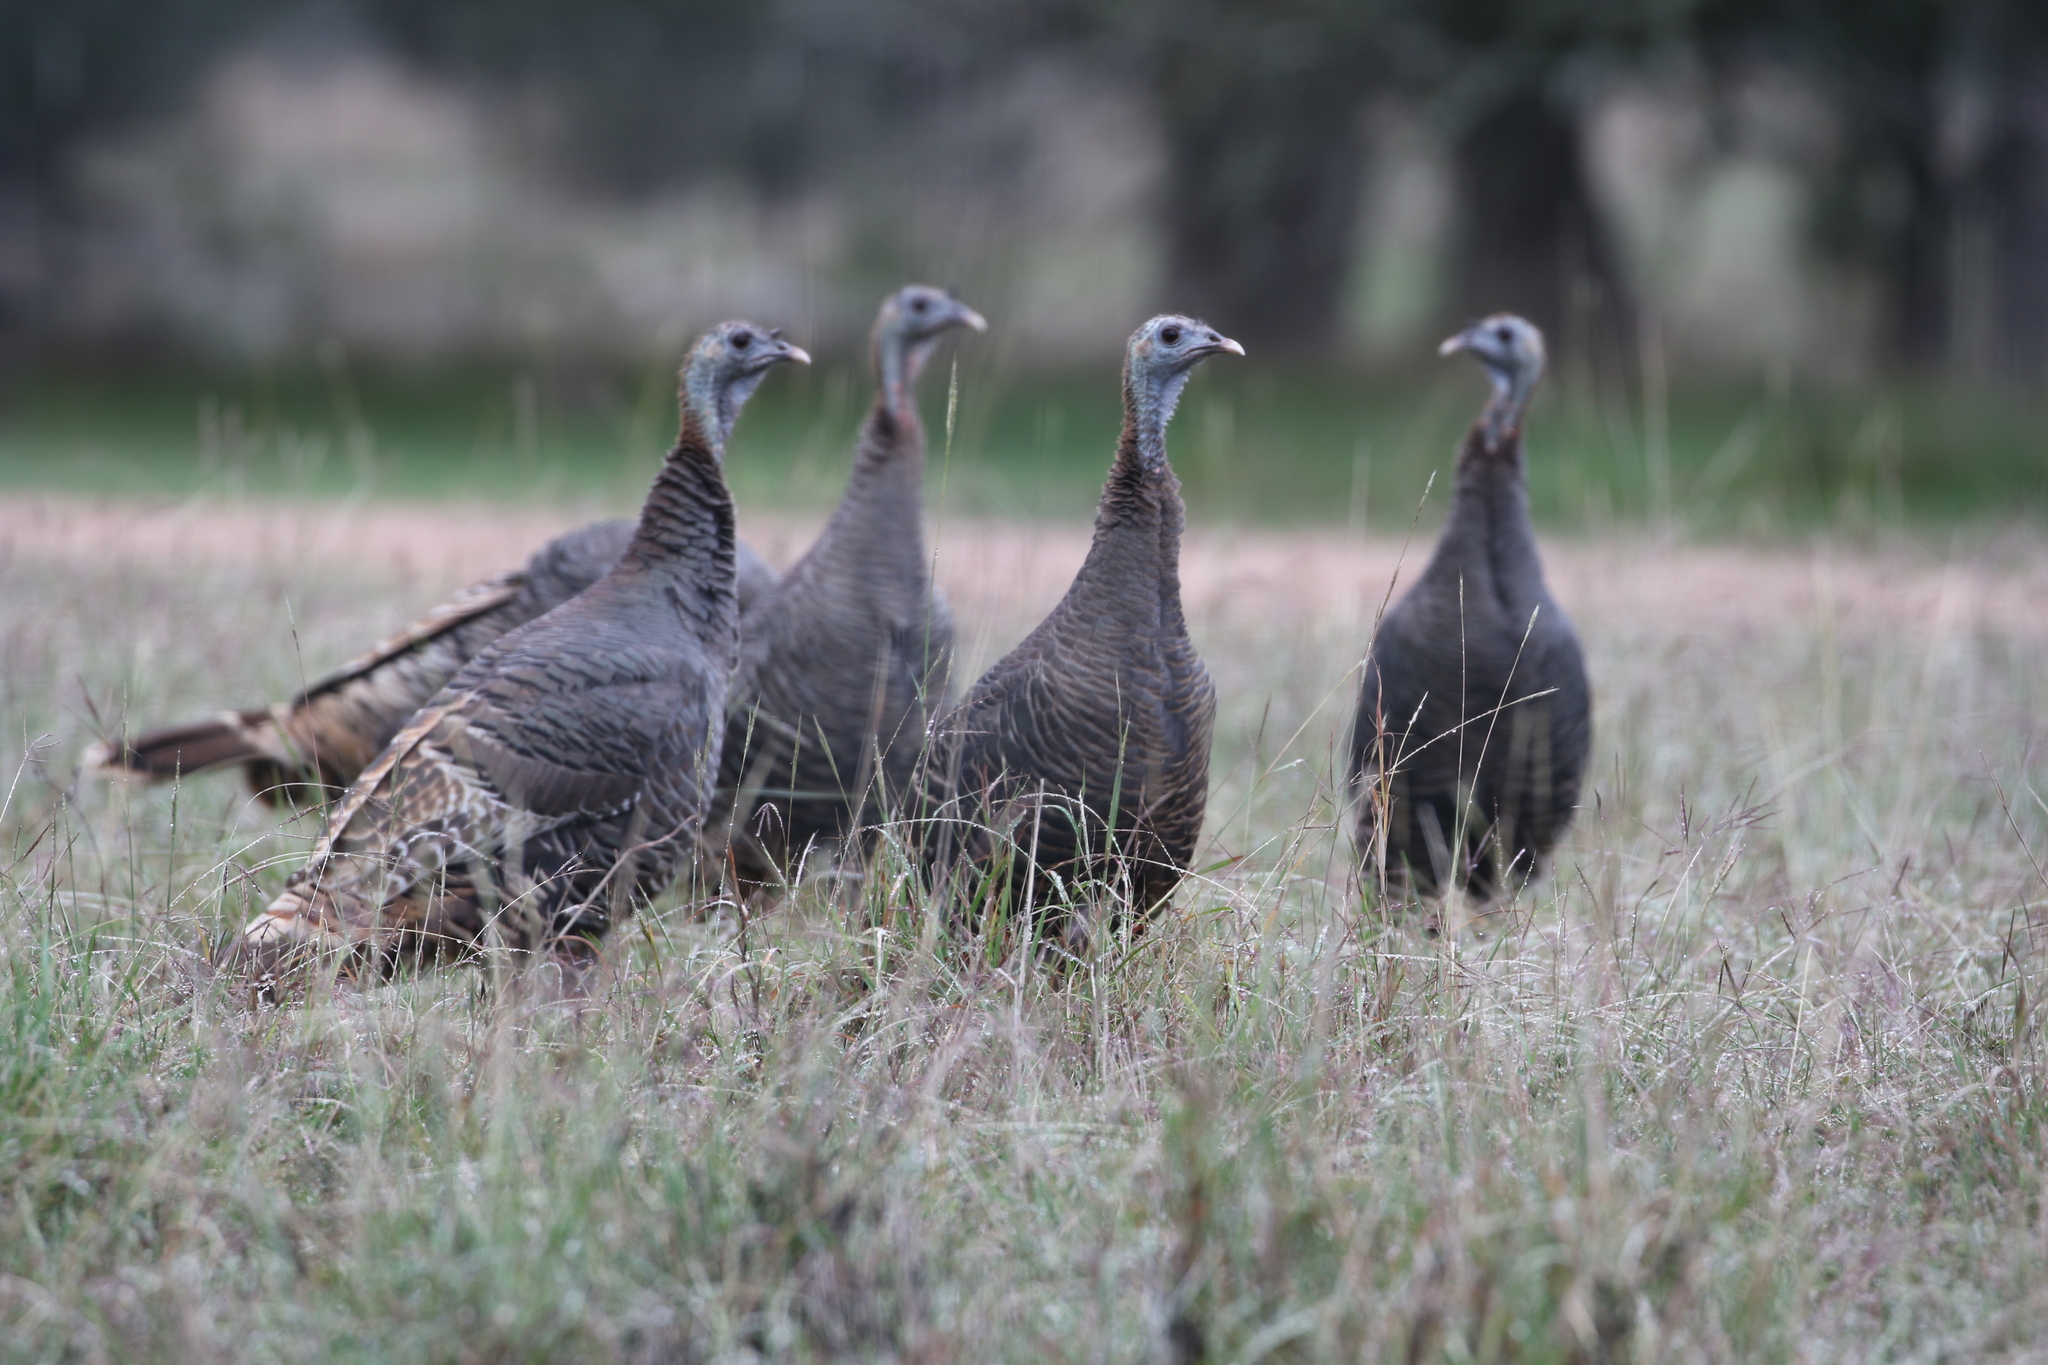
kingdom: Animalia
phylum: Chordata
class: Aves
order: Galliformes
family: Phasianidae
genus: Meleagris
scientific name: Meleagris gallopavo
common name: Wild turkey
